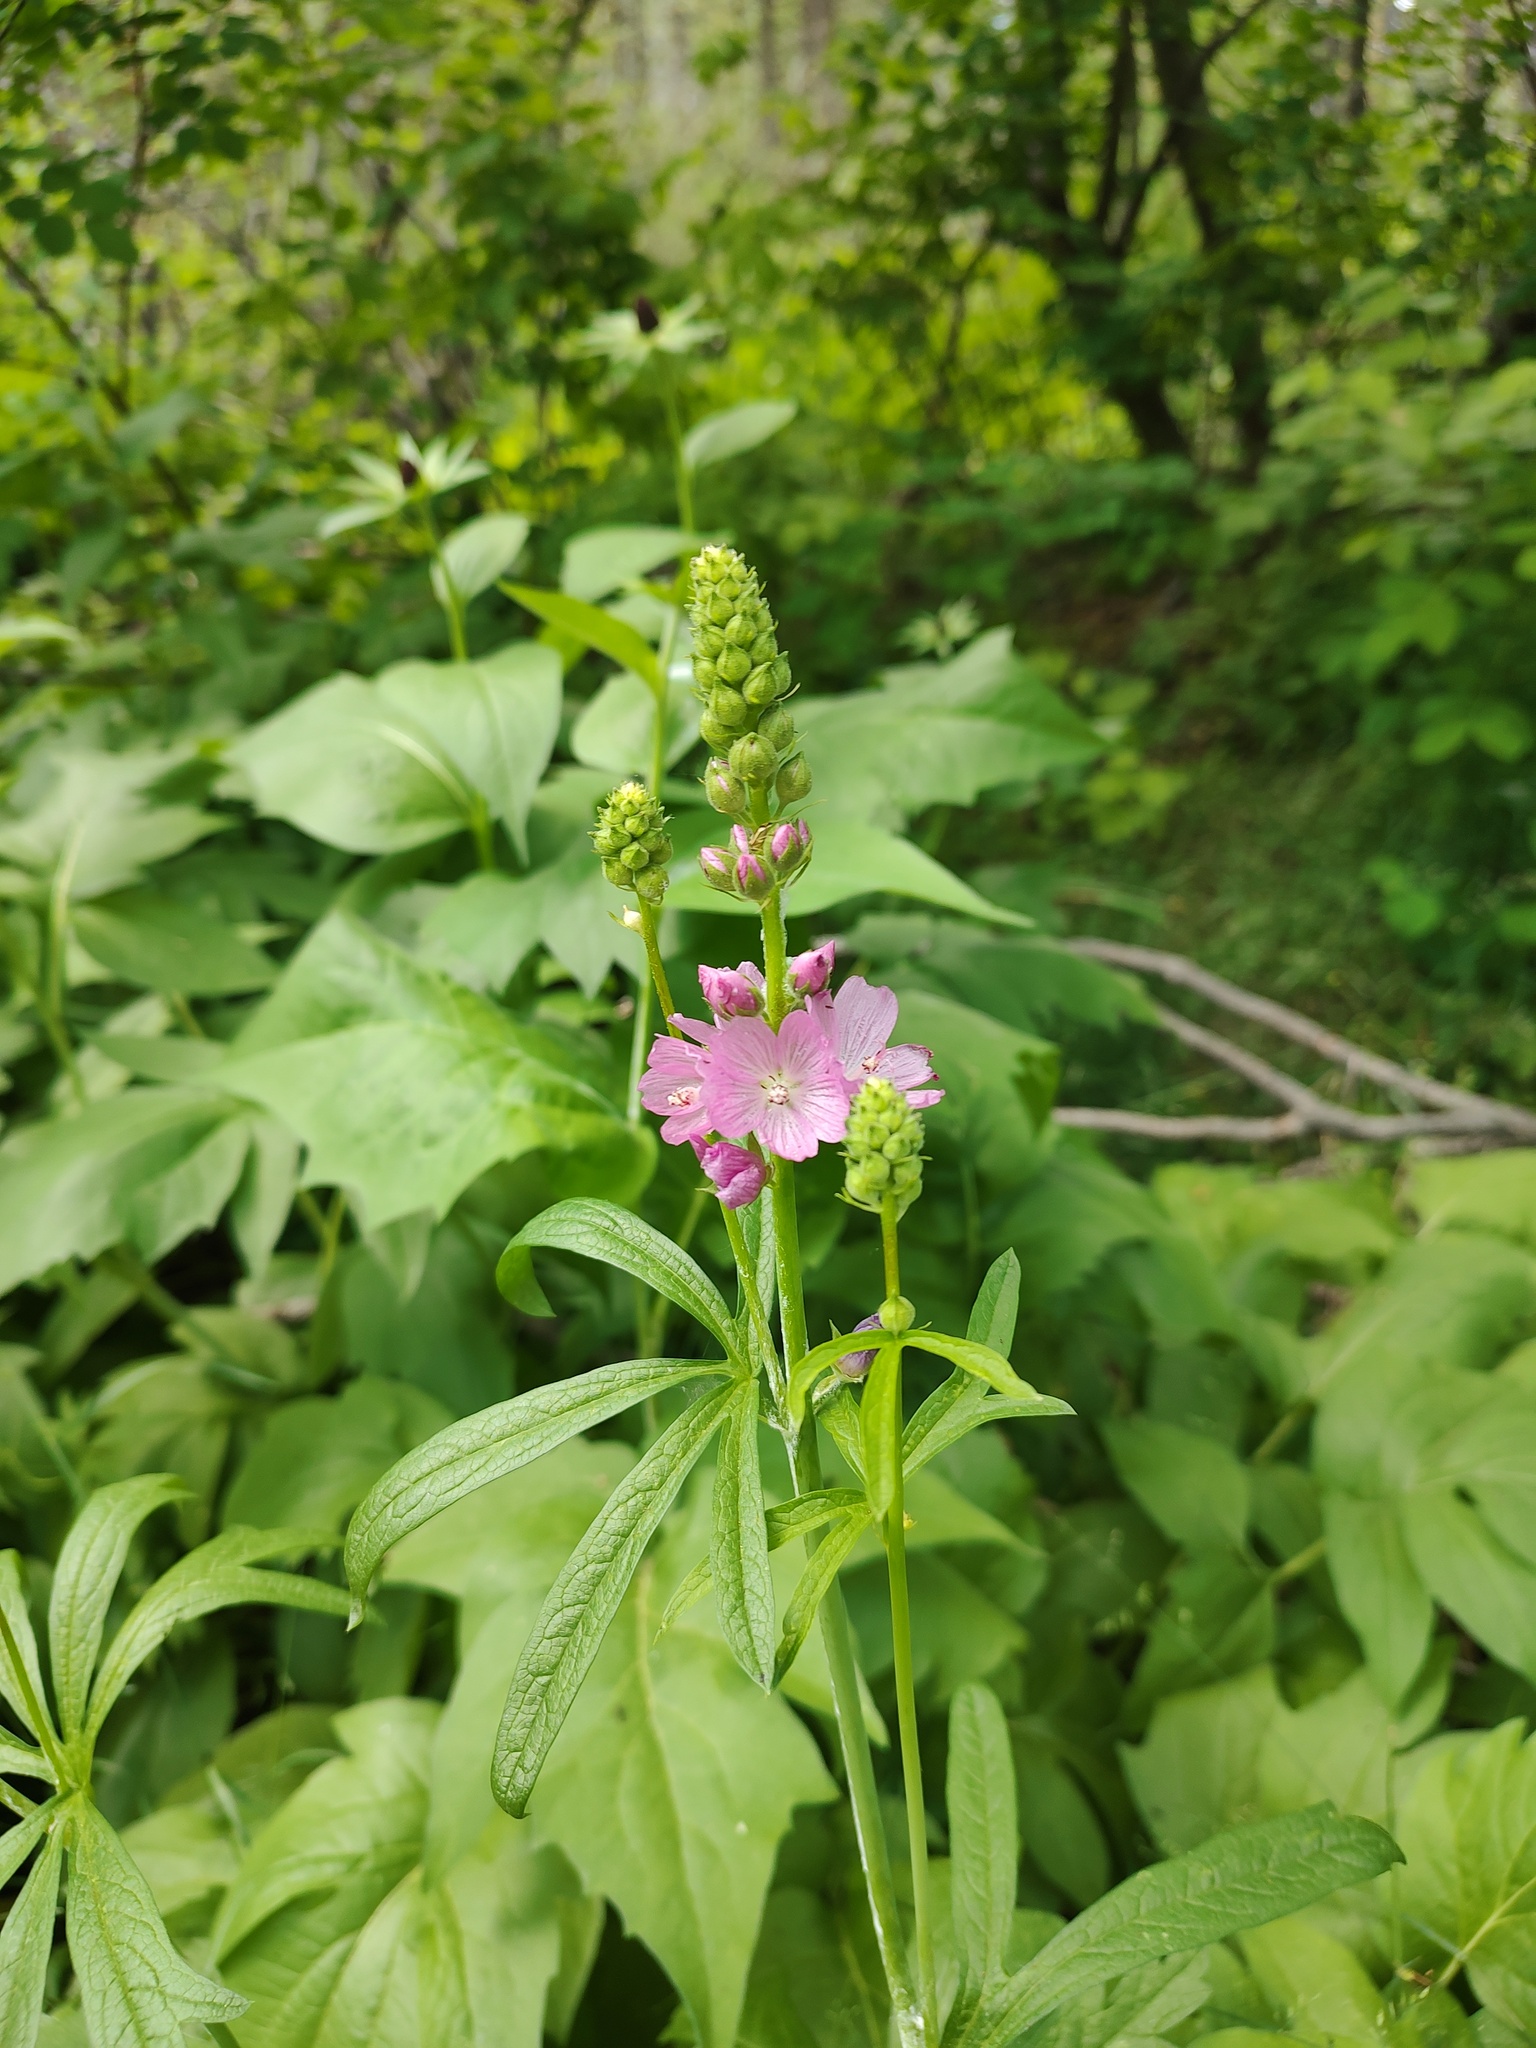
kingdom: Plantae
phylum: Tracheophyta
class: Magnoliopsida
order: Malvales
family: Malvaceae
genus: Sidalcea
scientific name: Sidalcea oregana
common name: Oregon checker-mallow
